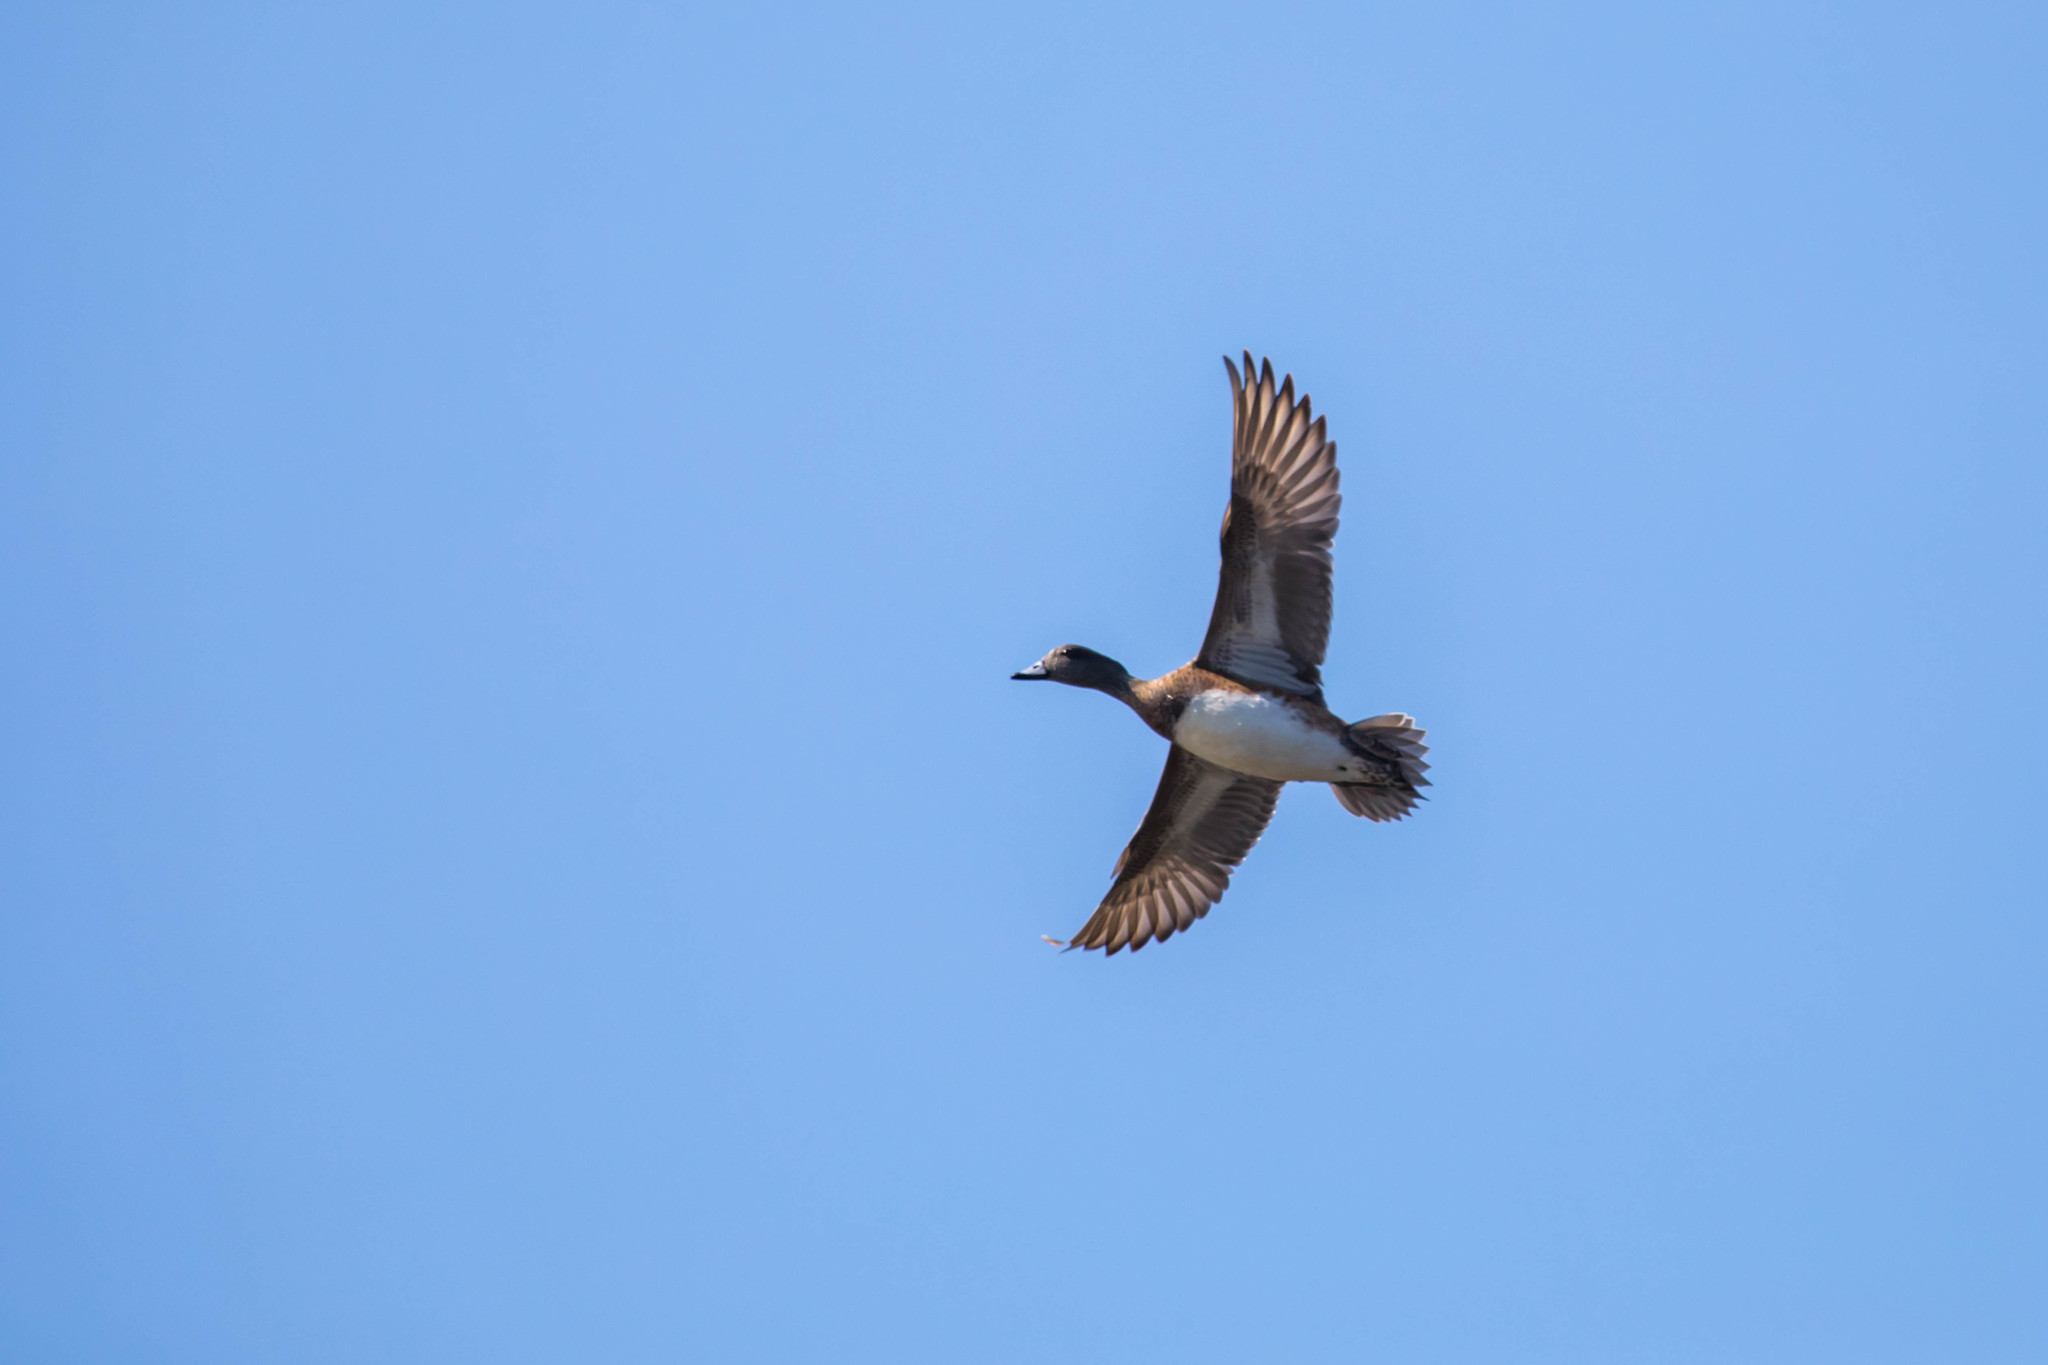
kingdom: Animalia
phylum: Chordata
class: Aves
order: Anseriformes
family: Anatidae
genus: Mareca
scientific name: Mareca americana
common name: American wigeon
